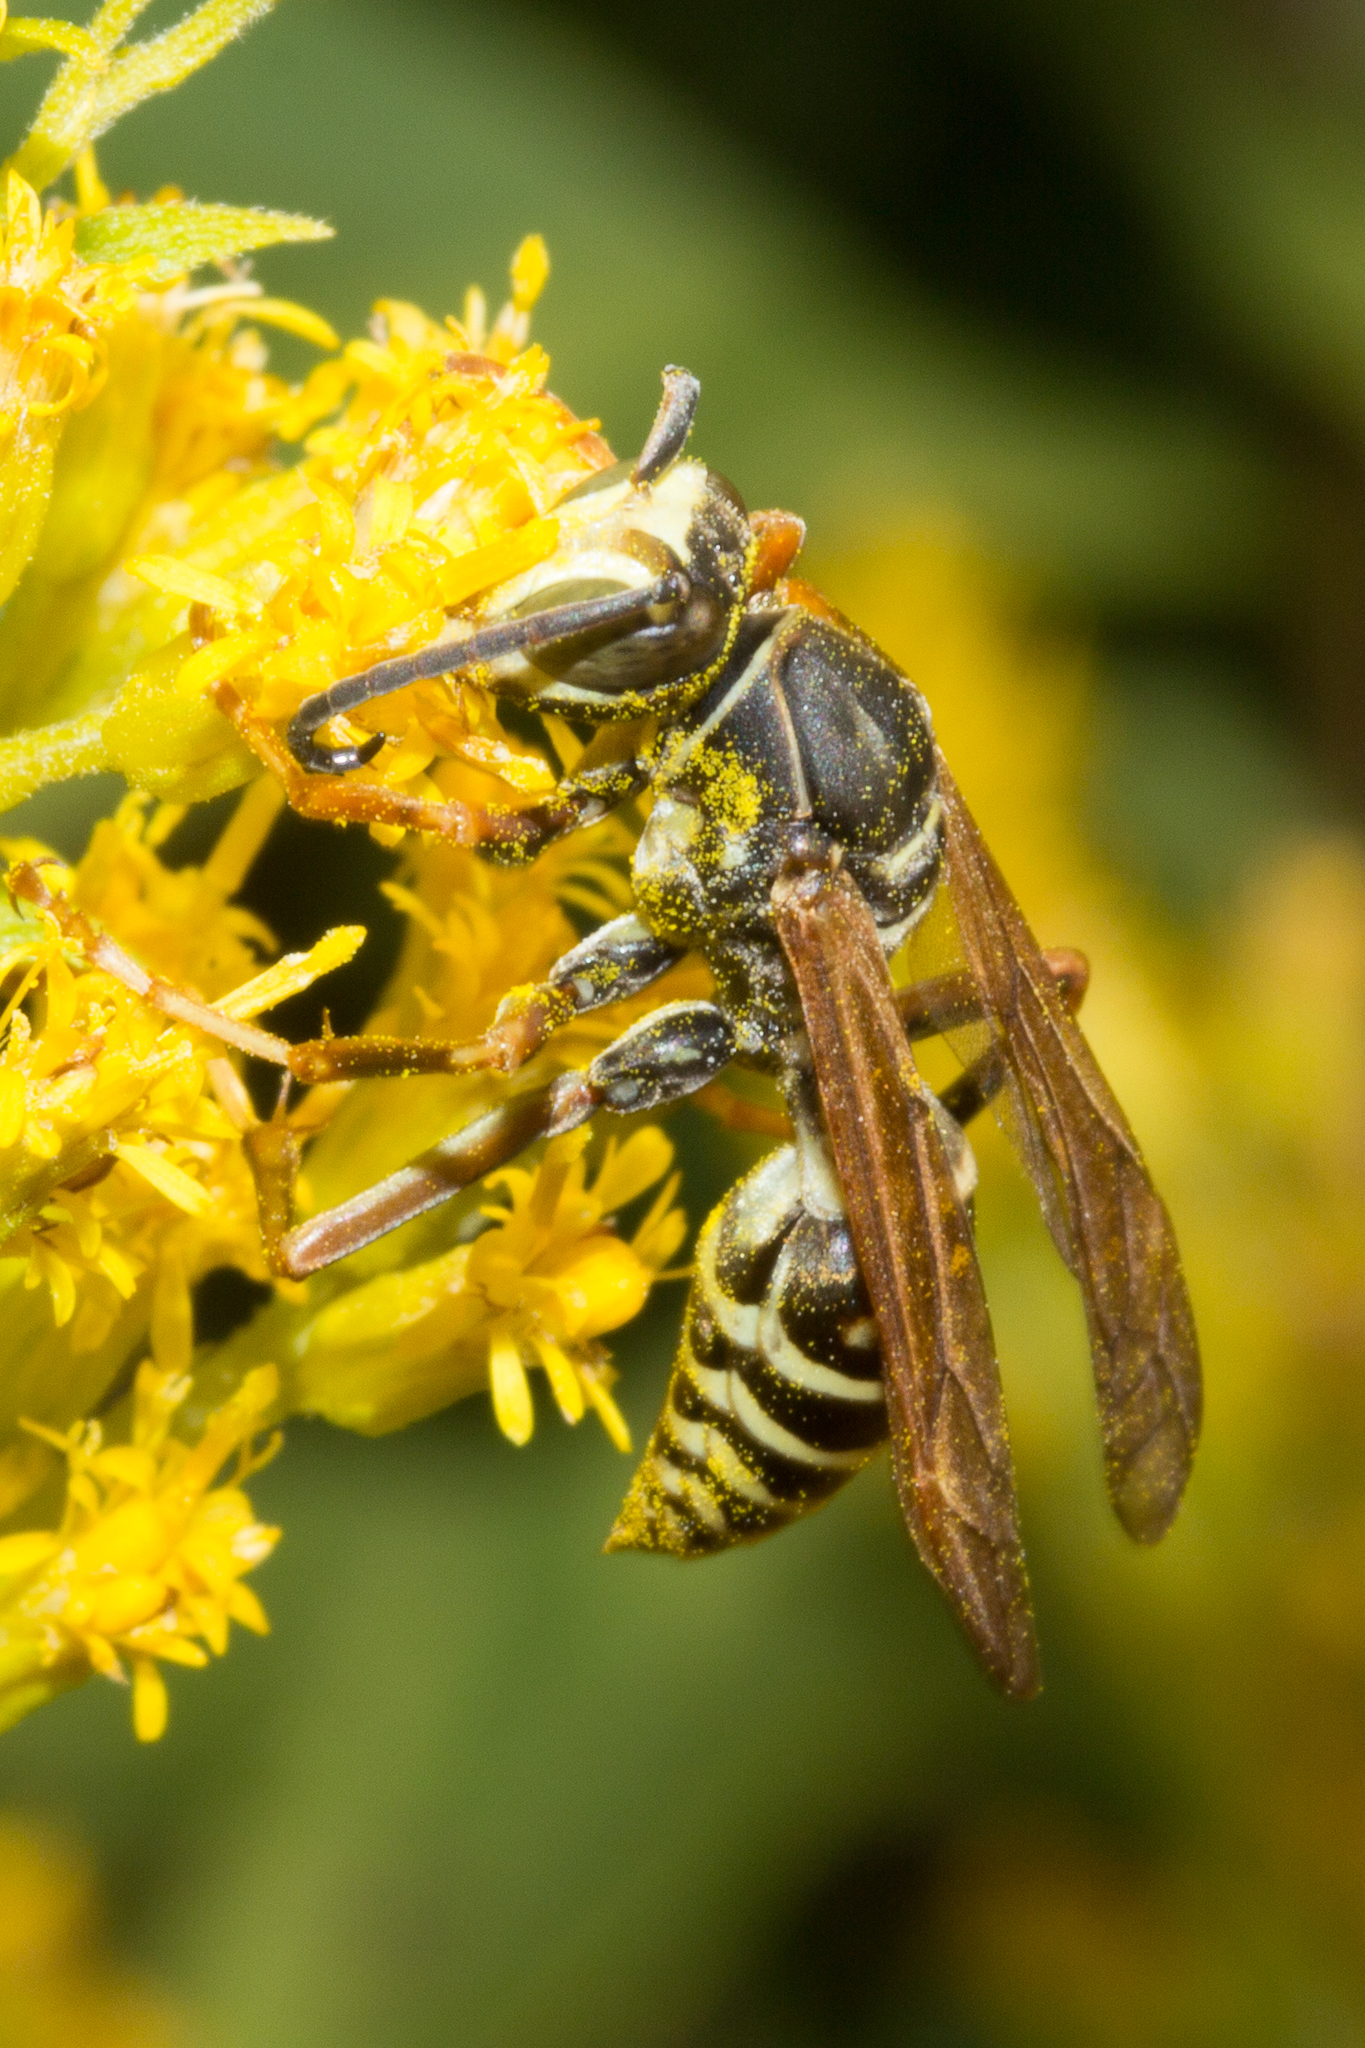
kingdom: Animalia
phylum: Arthropoda
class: Insecta
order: Hymenoptera
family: Eumenidae
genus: Polistes
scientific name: Polistes fuscatus
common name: Dark paper wasp
